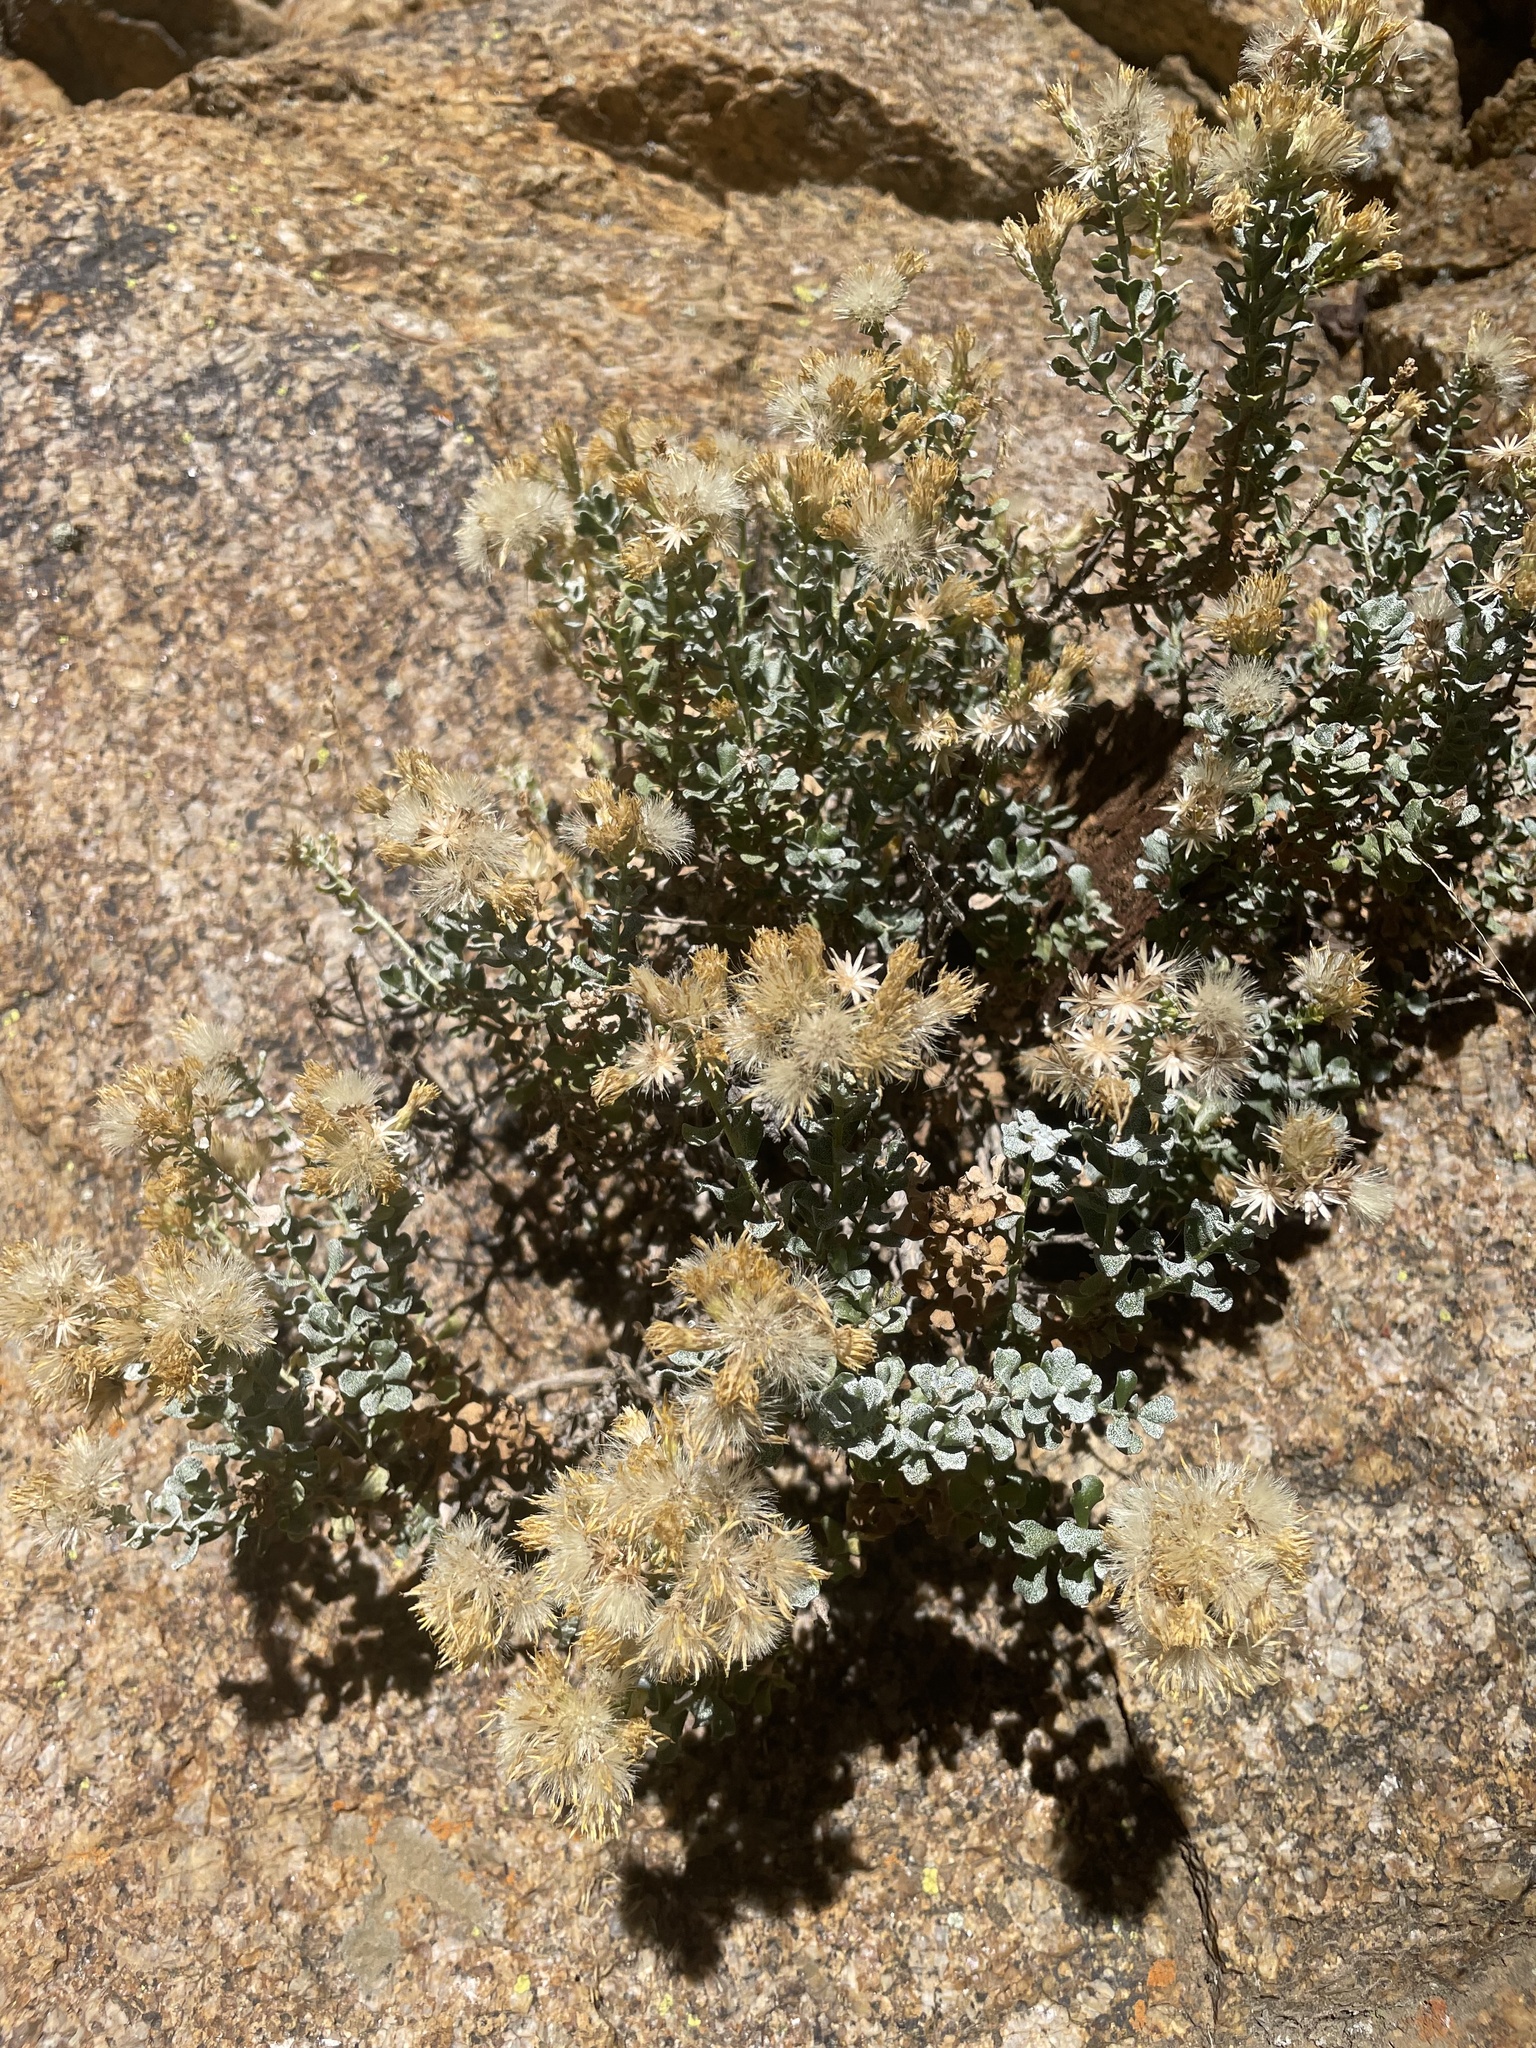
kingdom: Plantae
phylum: Tracheophyta
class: Magnoliopsida
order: Asterales
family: Asteraceae
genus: Ericameria
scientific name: Ericameria cuneata
